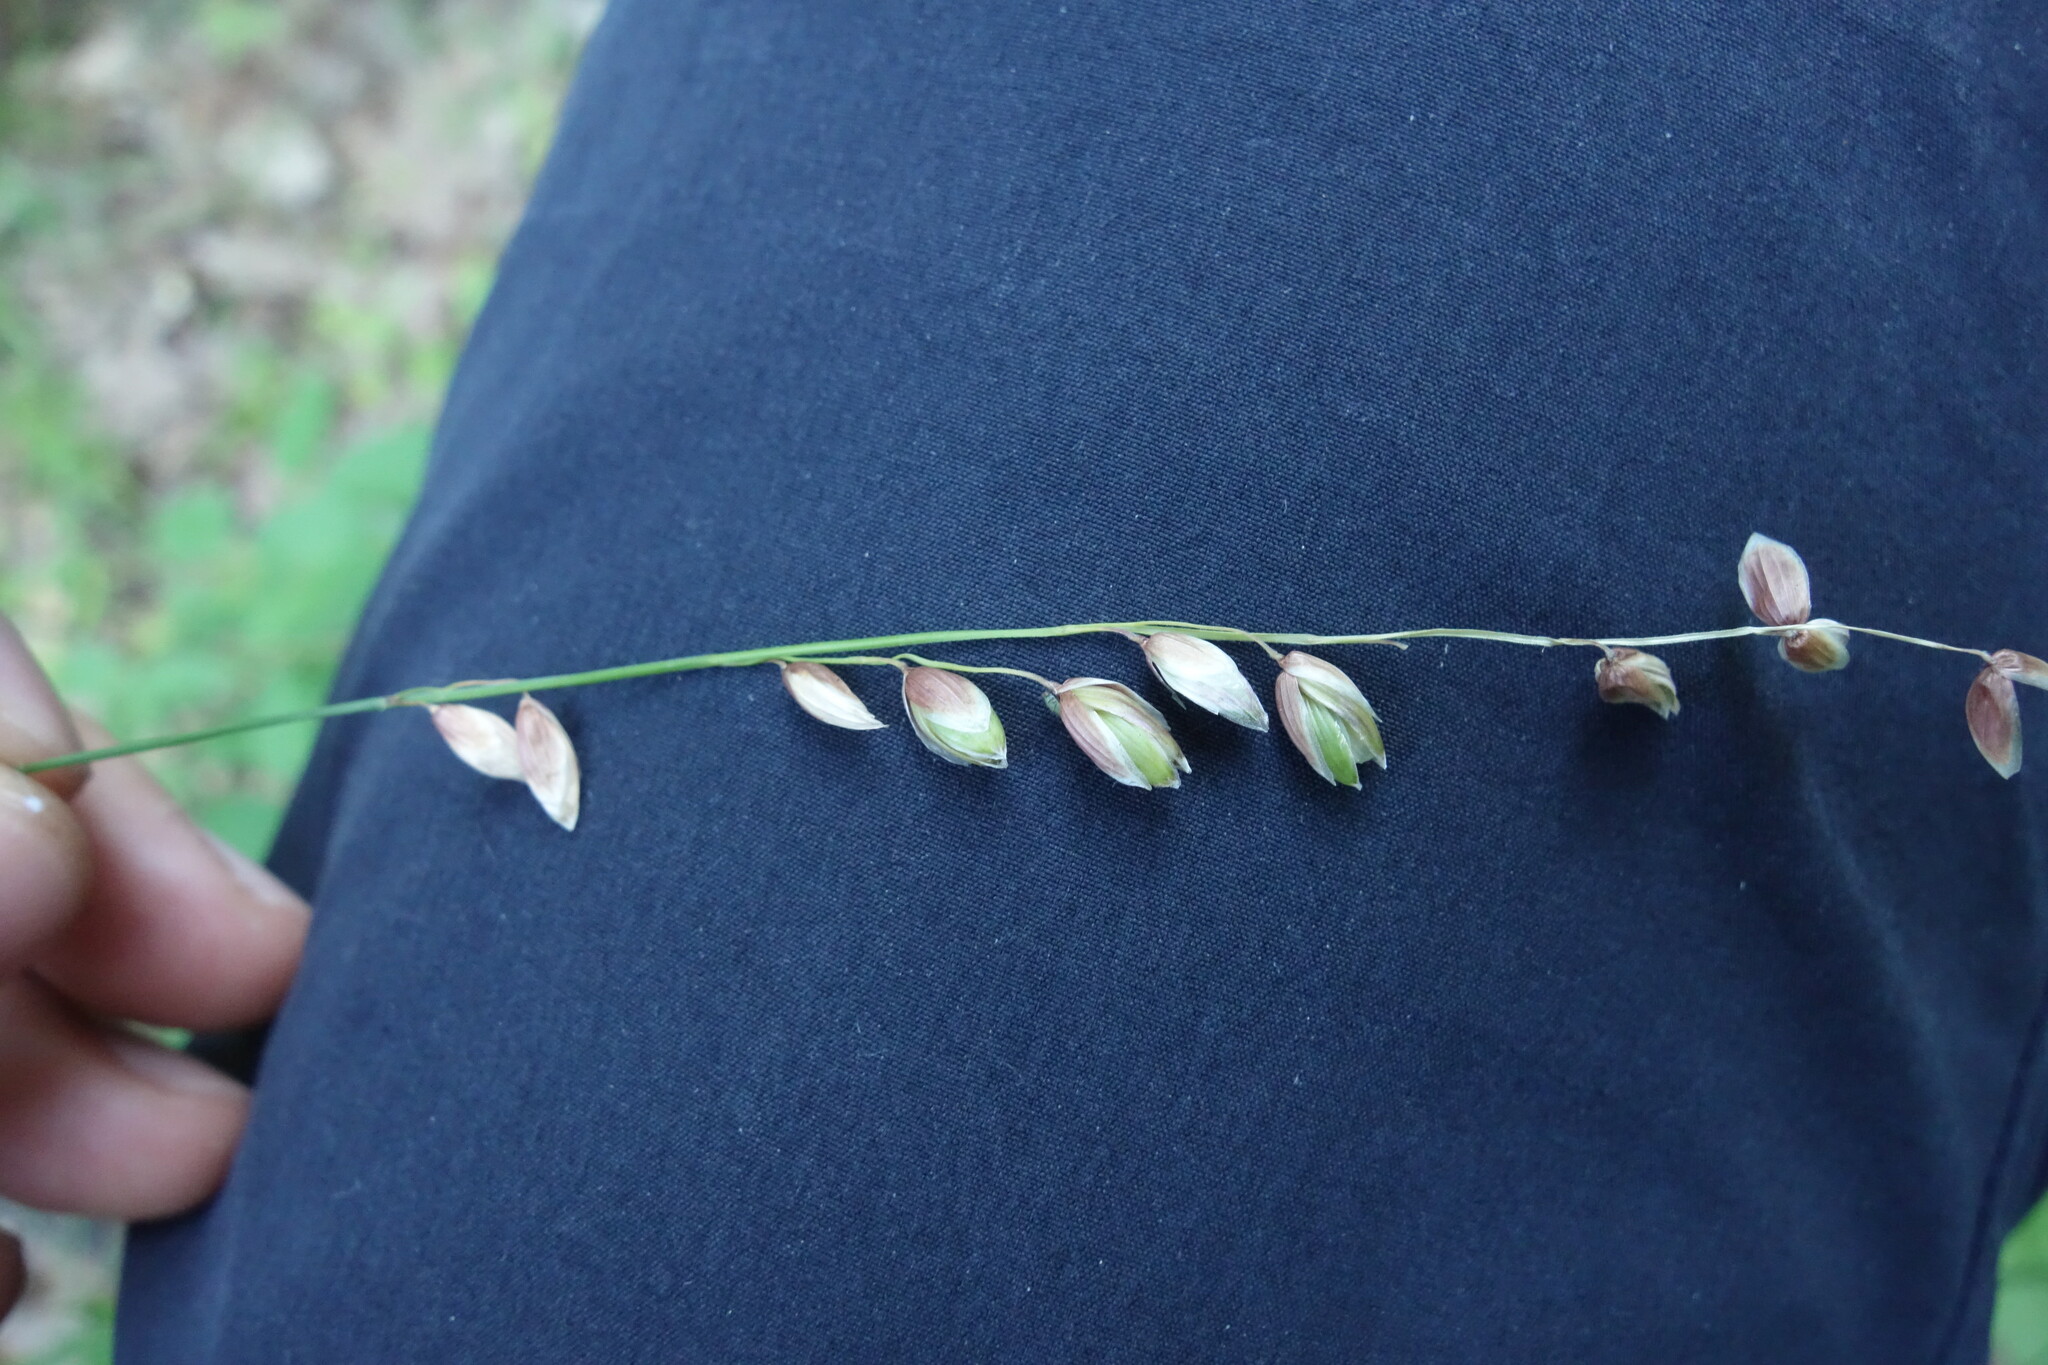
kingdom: Plantae
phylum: Tracheophyta
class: Liliopsida
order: Poales
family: Poaceae
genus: Melica
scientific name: Melica nutans
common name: Mountain melick
